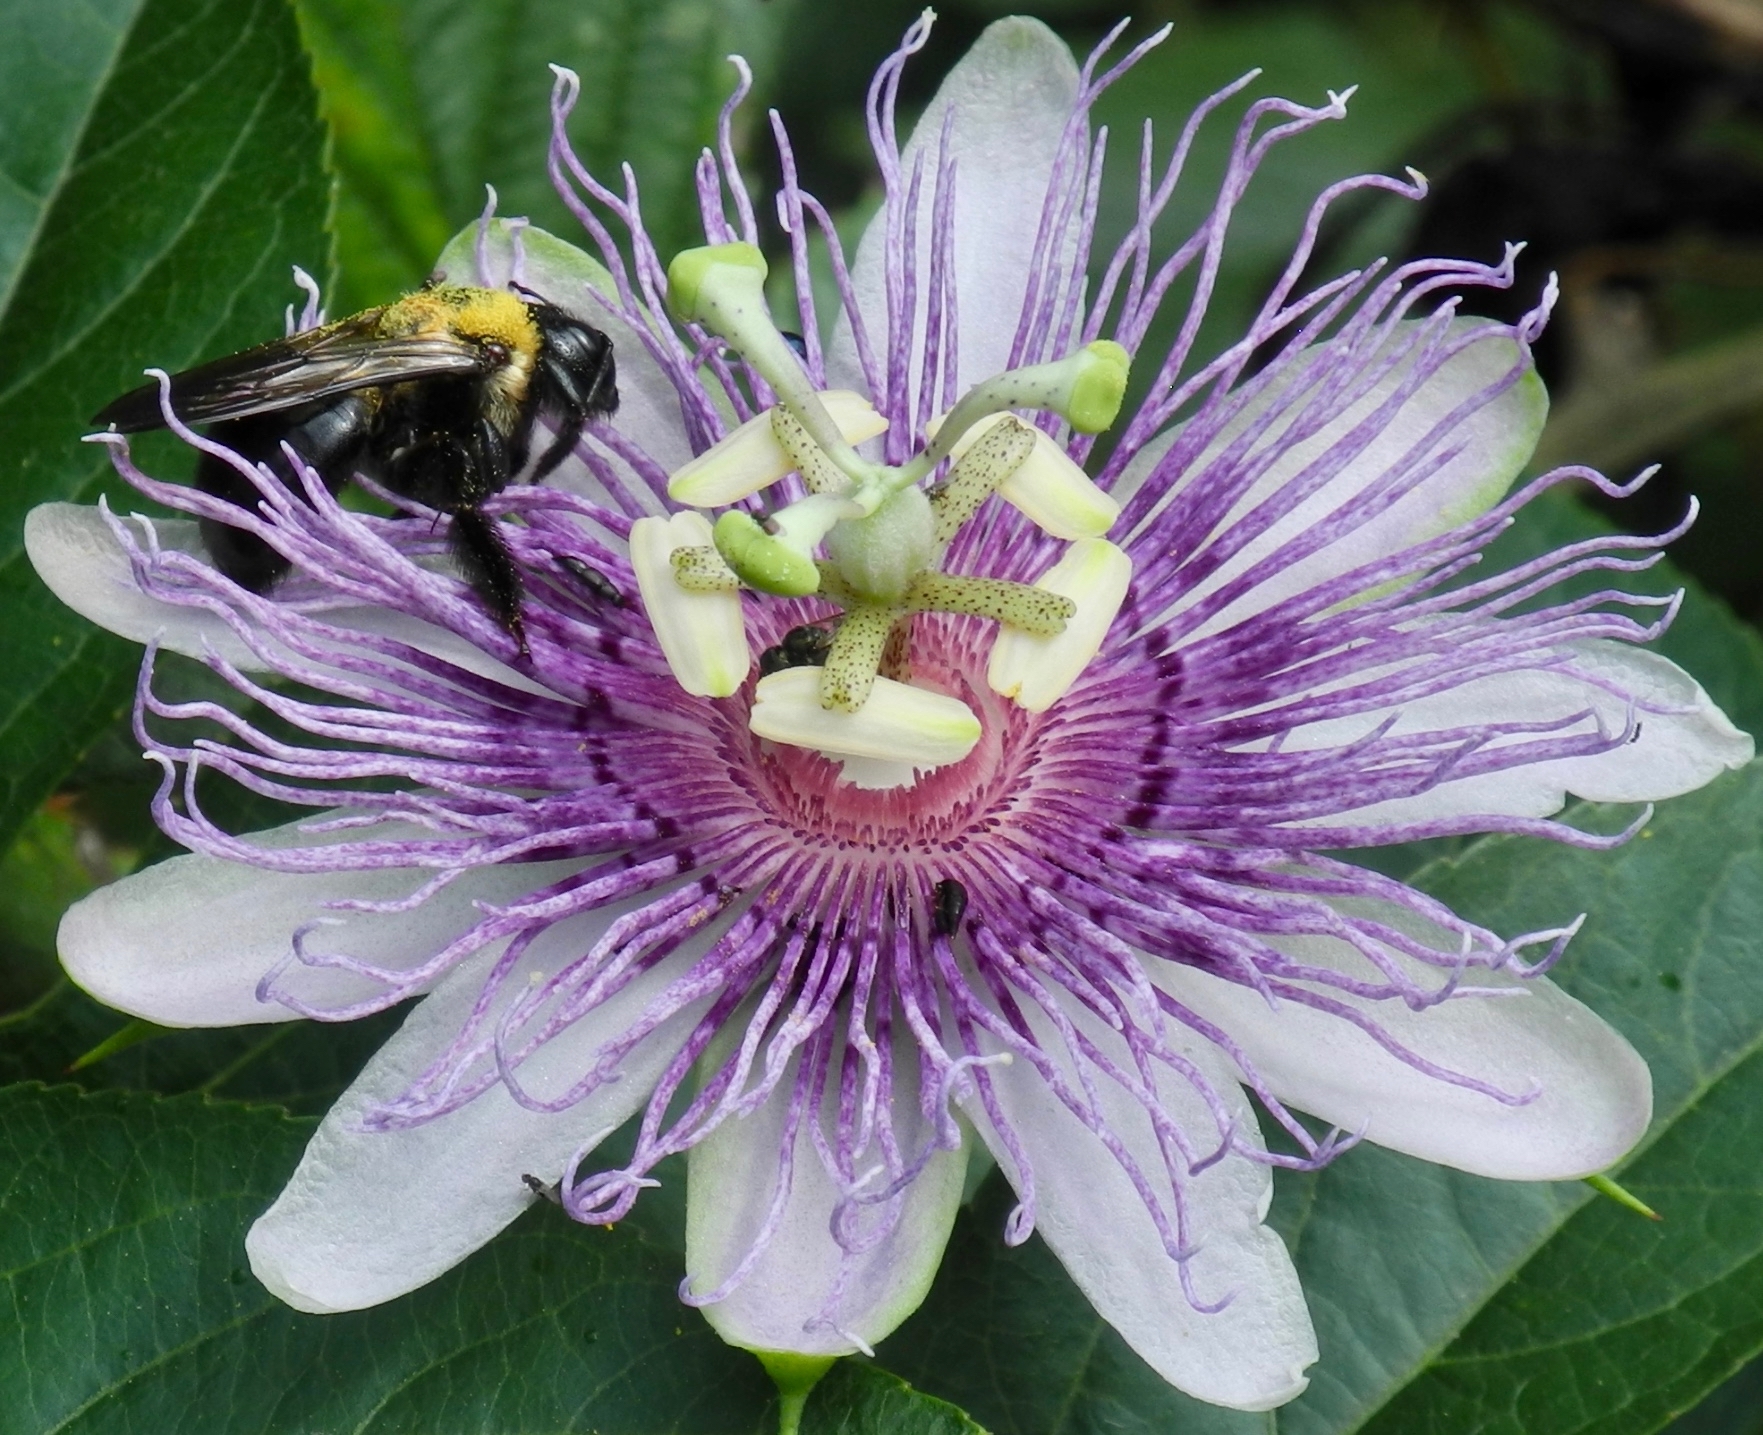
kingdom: Animalia
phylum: Arthropoda
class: Insecta
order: Hymenoptera
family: Apidae
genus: Xylocopa
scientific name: Xylocopa virginica
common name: Carpenter bee
